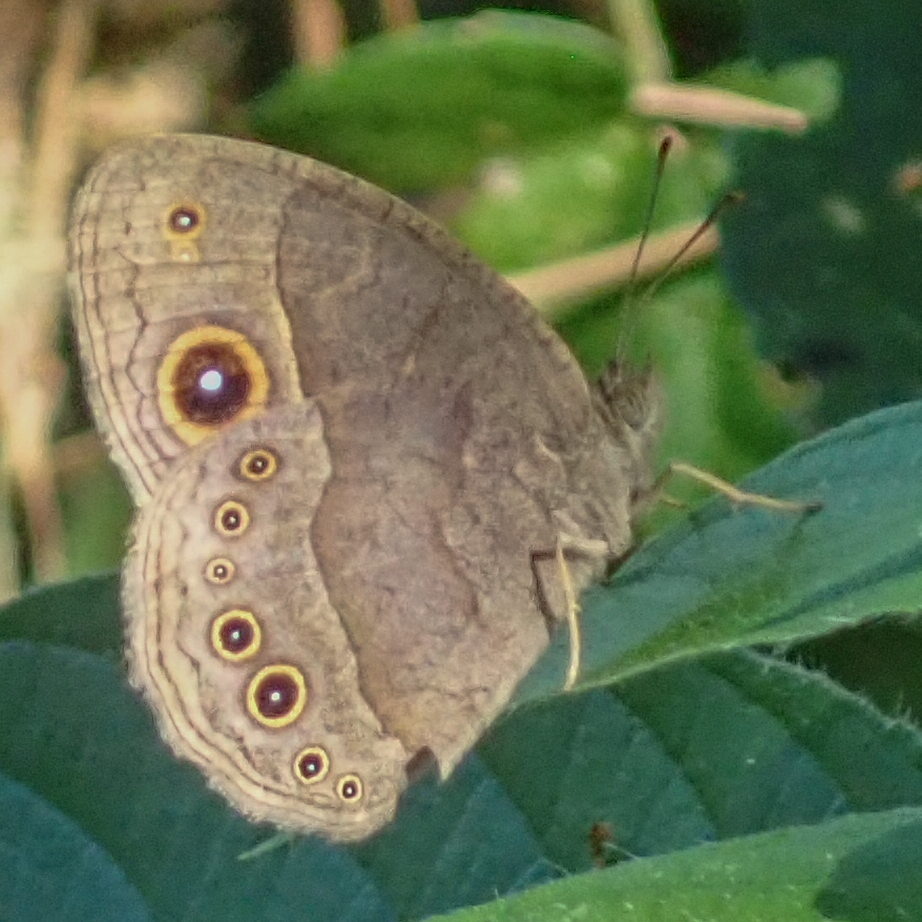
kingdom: Animalia
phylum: Arthropoda
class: Insecta
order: Lepidoptera
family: Nymphalidae
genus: Mycalesis
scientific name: Mycalesis anynana
